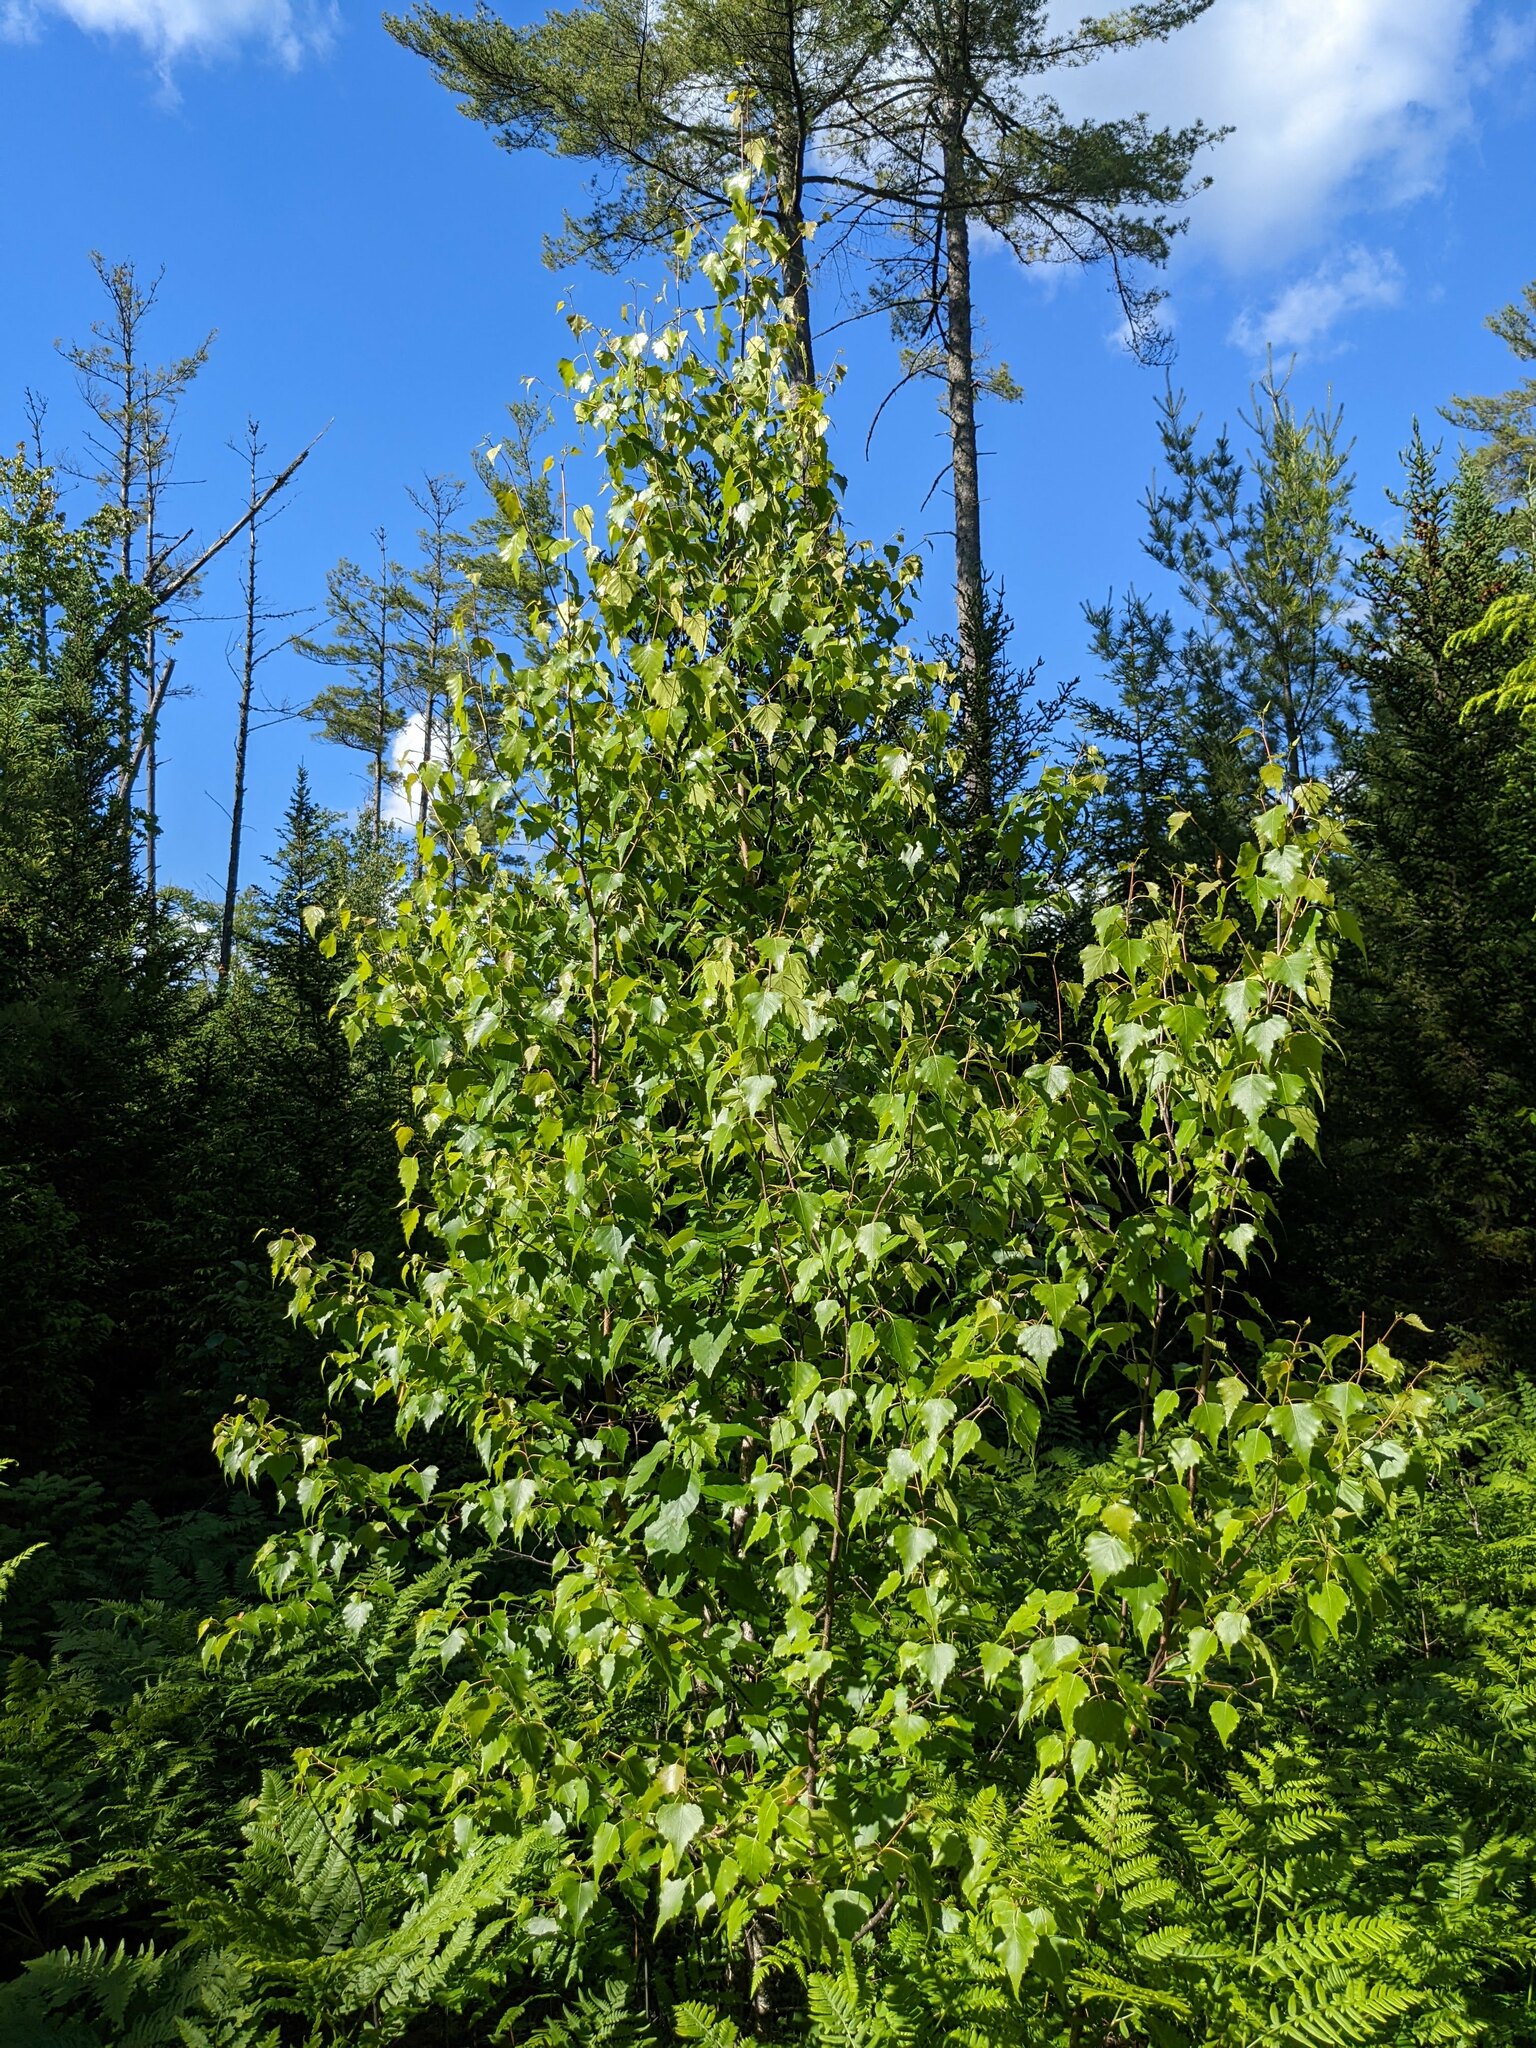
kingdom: Plantae
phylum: Tracheophyta
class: Magnoliopsida
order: Fagales
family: Betulaceae
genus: Betula
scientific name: Betula populifolia
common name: Fire birch
